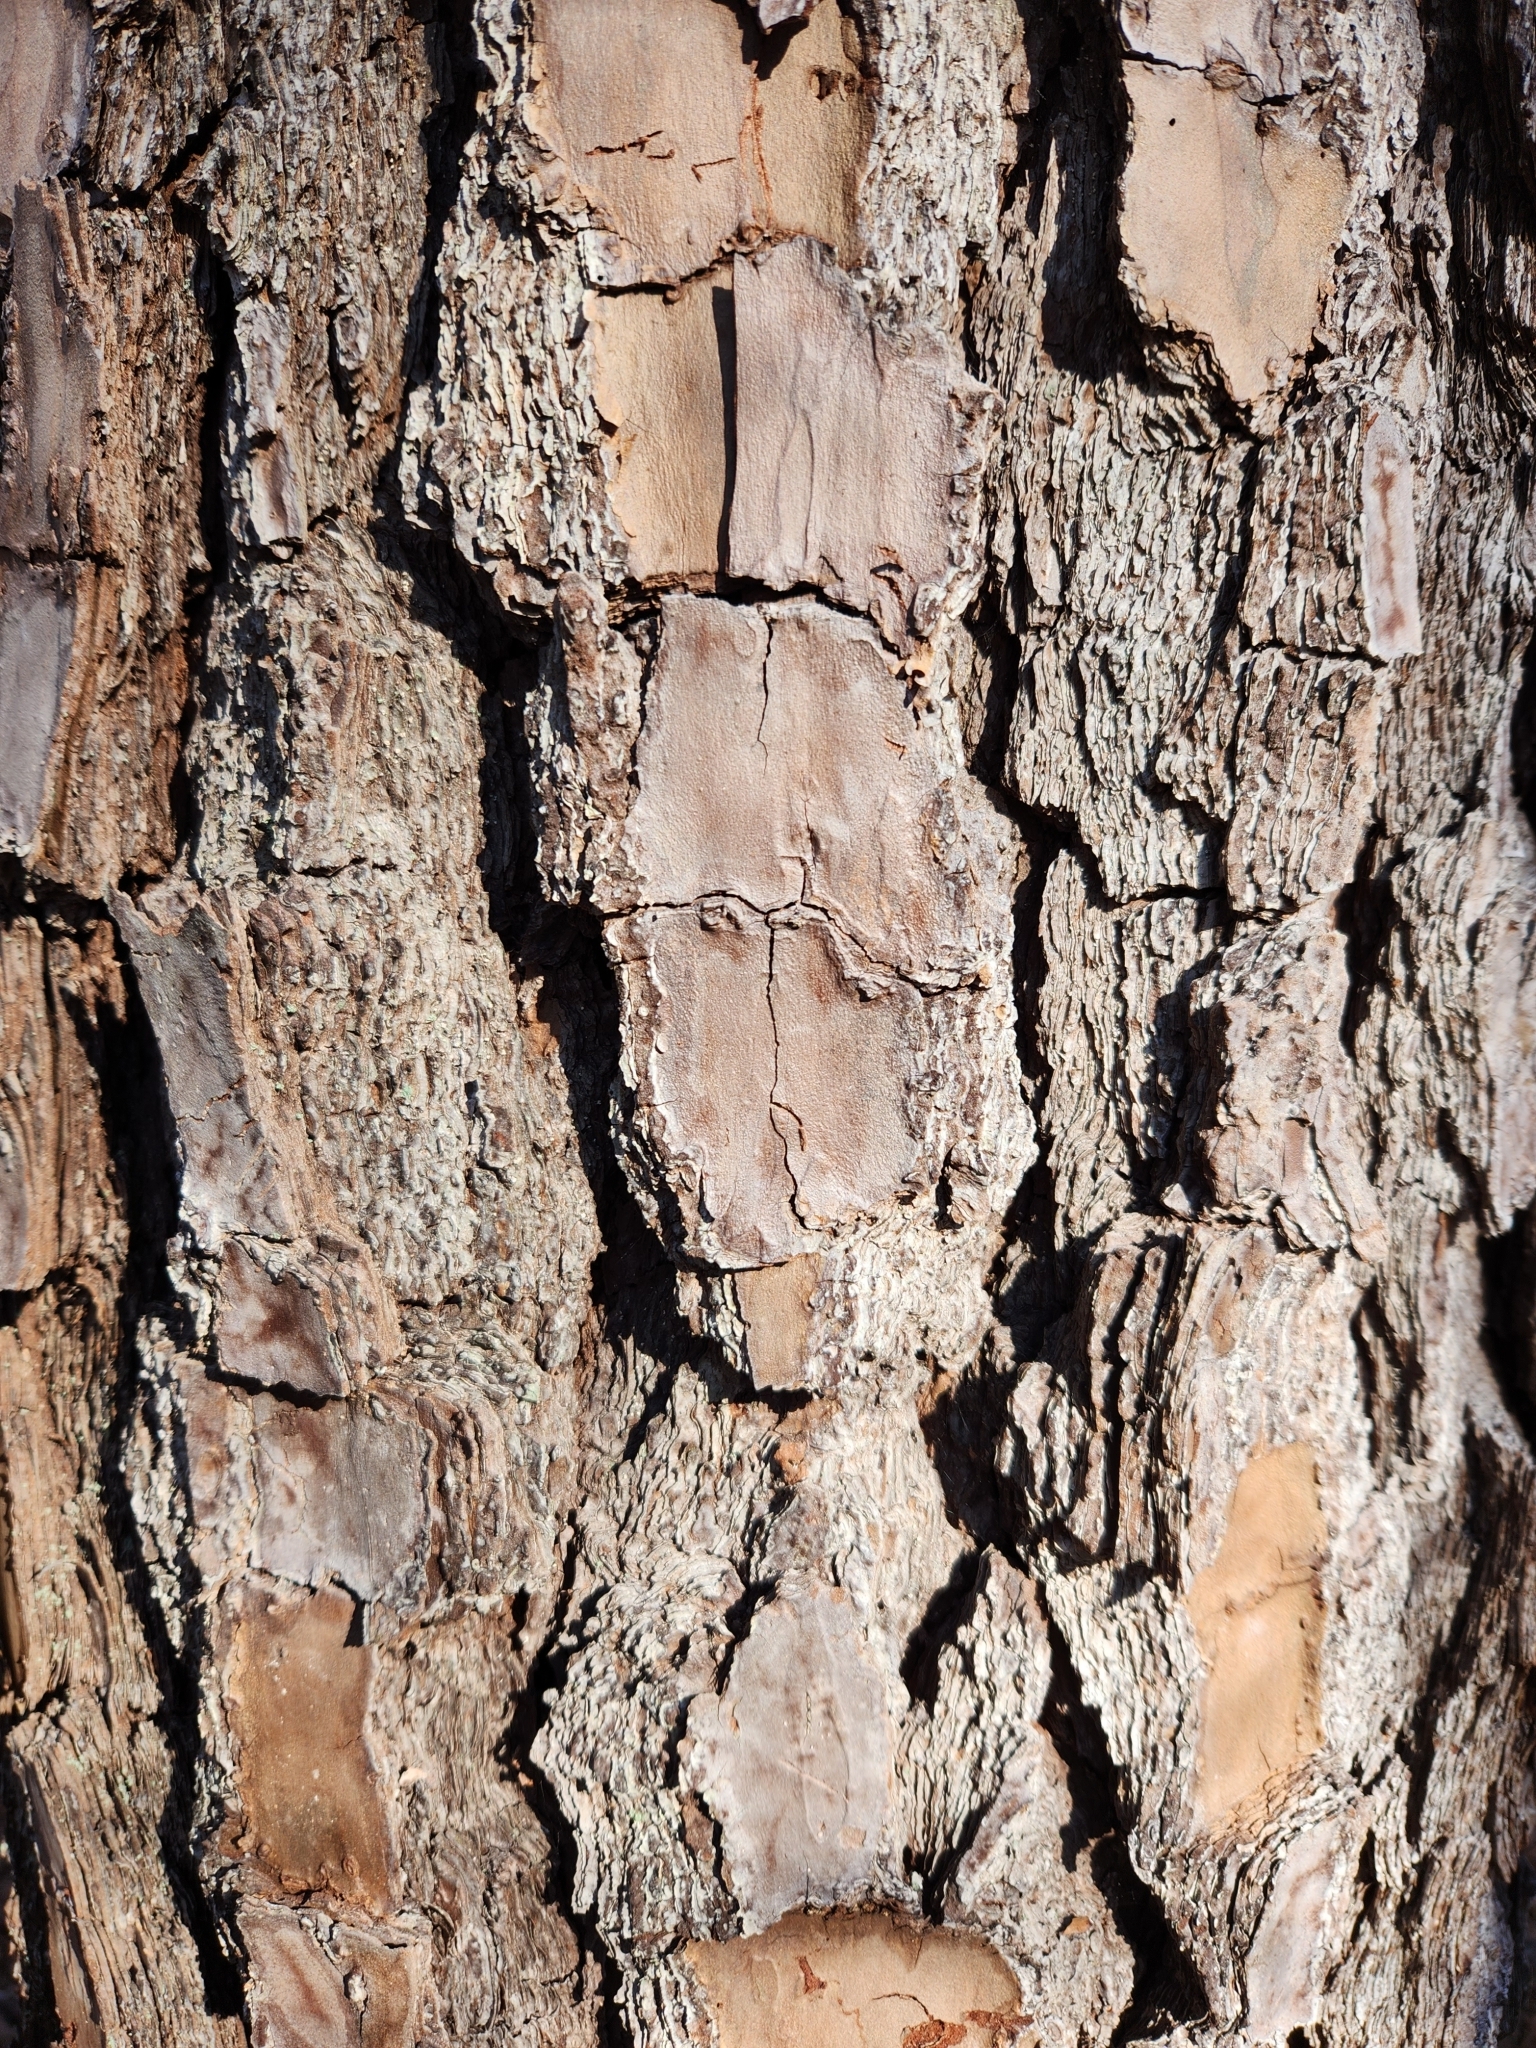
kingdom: Plantae
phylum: Tracheophyta
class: Pinopsida
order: Pinales
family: Pinaceae
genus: Pinus
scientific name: Pinus taeda
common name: Loblolly pine
